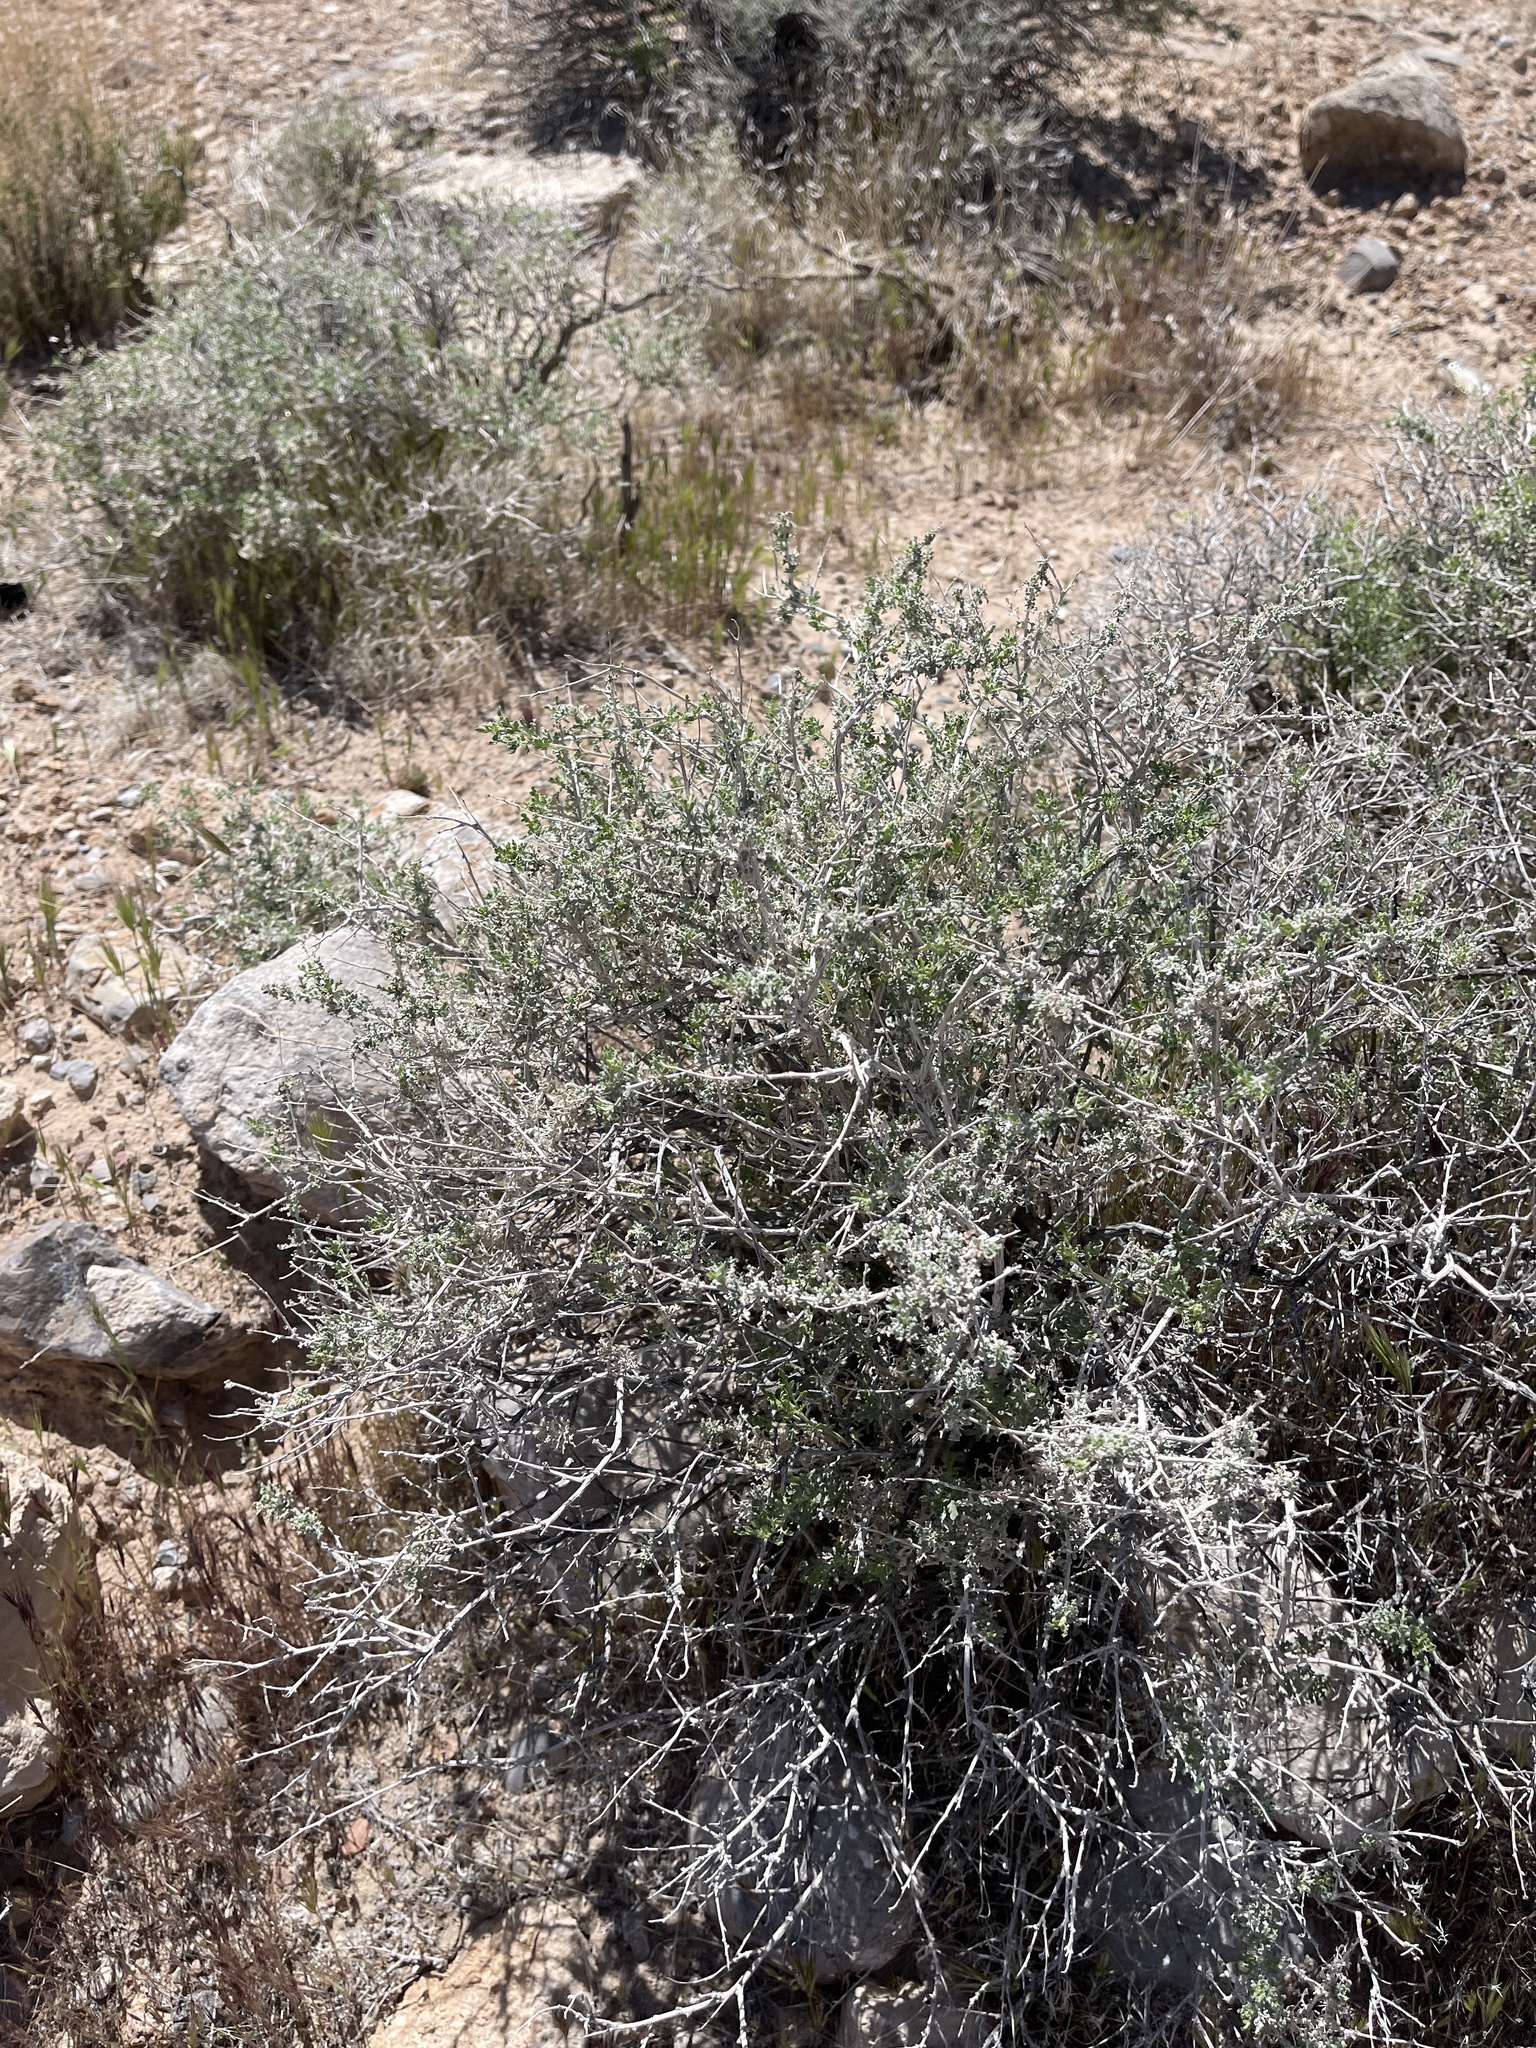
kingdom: Plantae
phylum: Tracheophyta
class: Magnoliopsida
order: Asterales
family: Asteraceae
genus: Ambrosia
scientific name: Ambrosia dumosa
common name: Bur-sage
